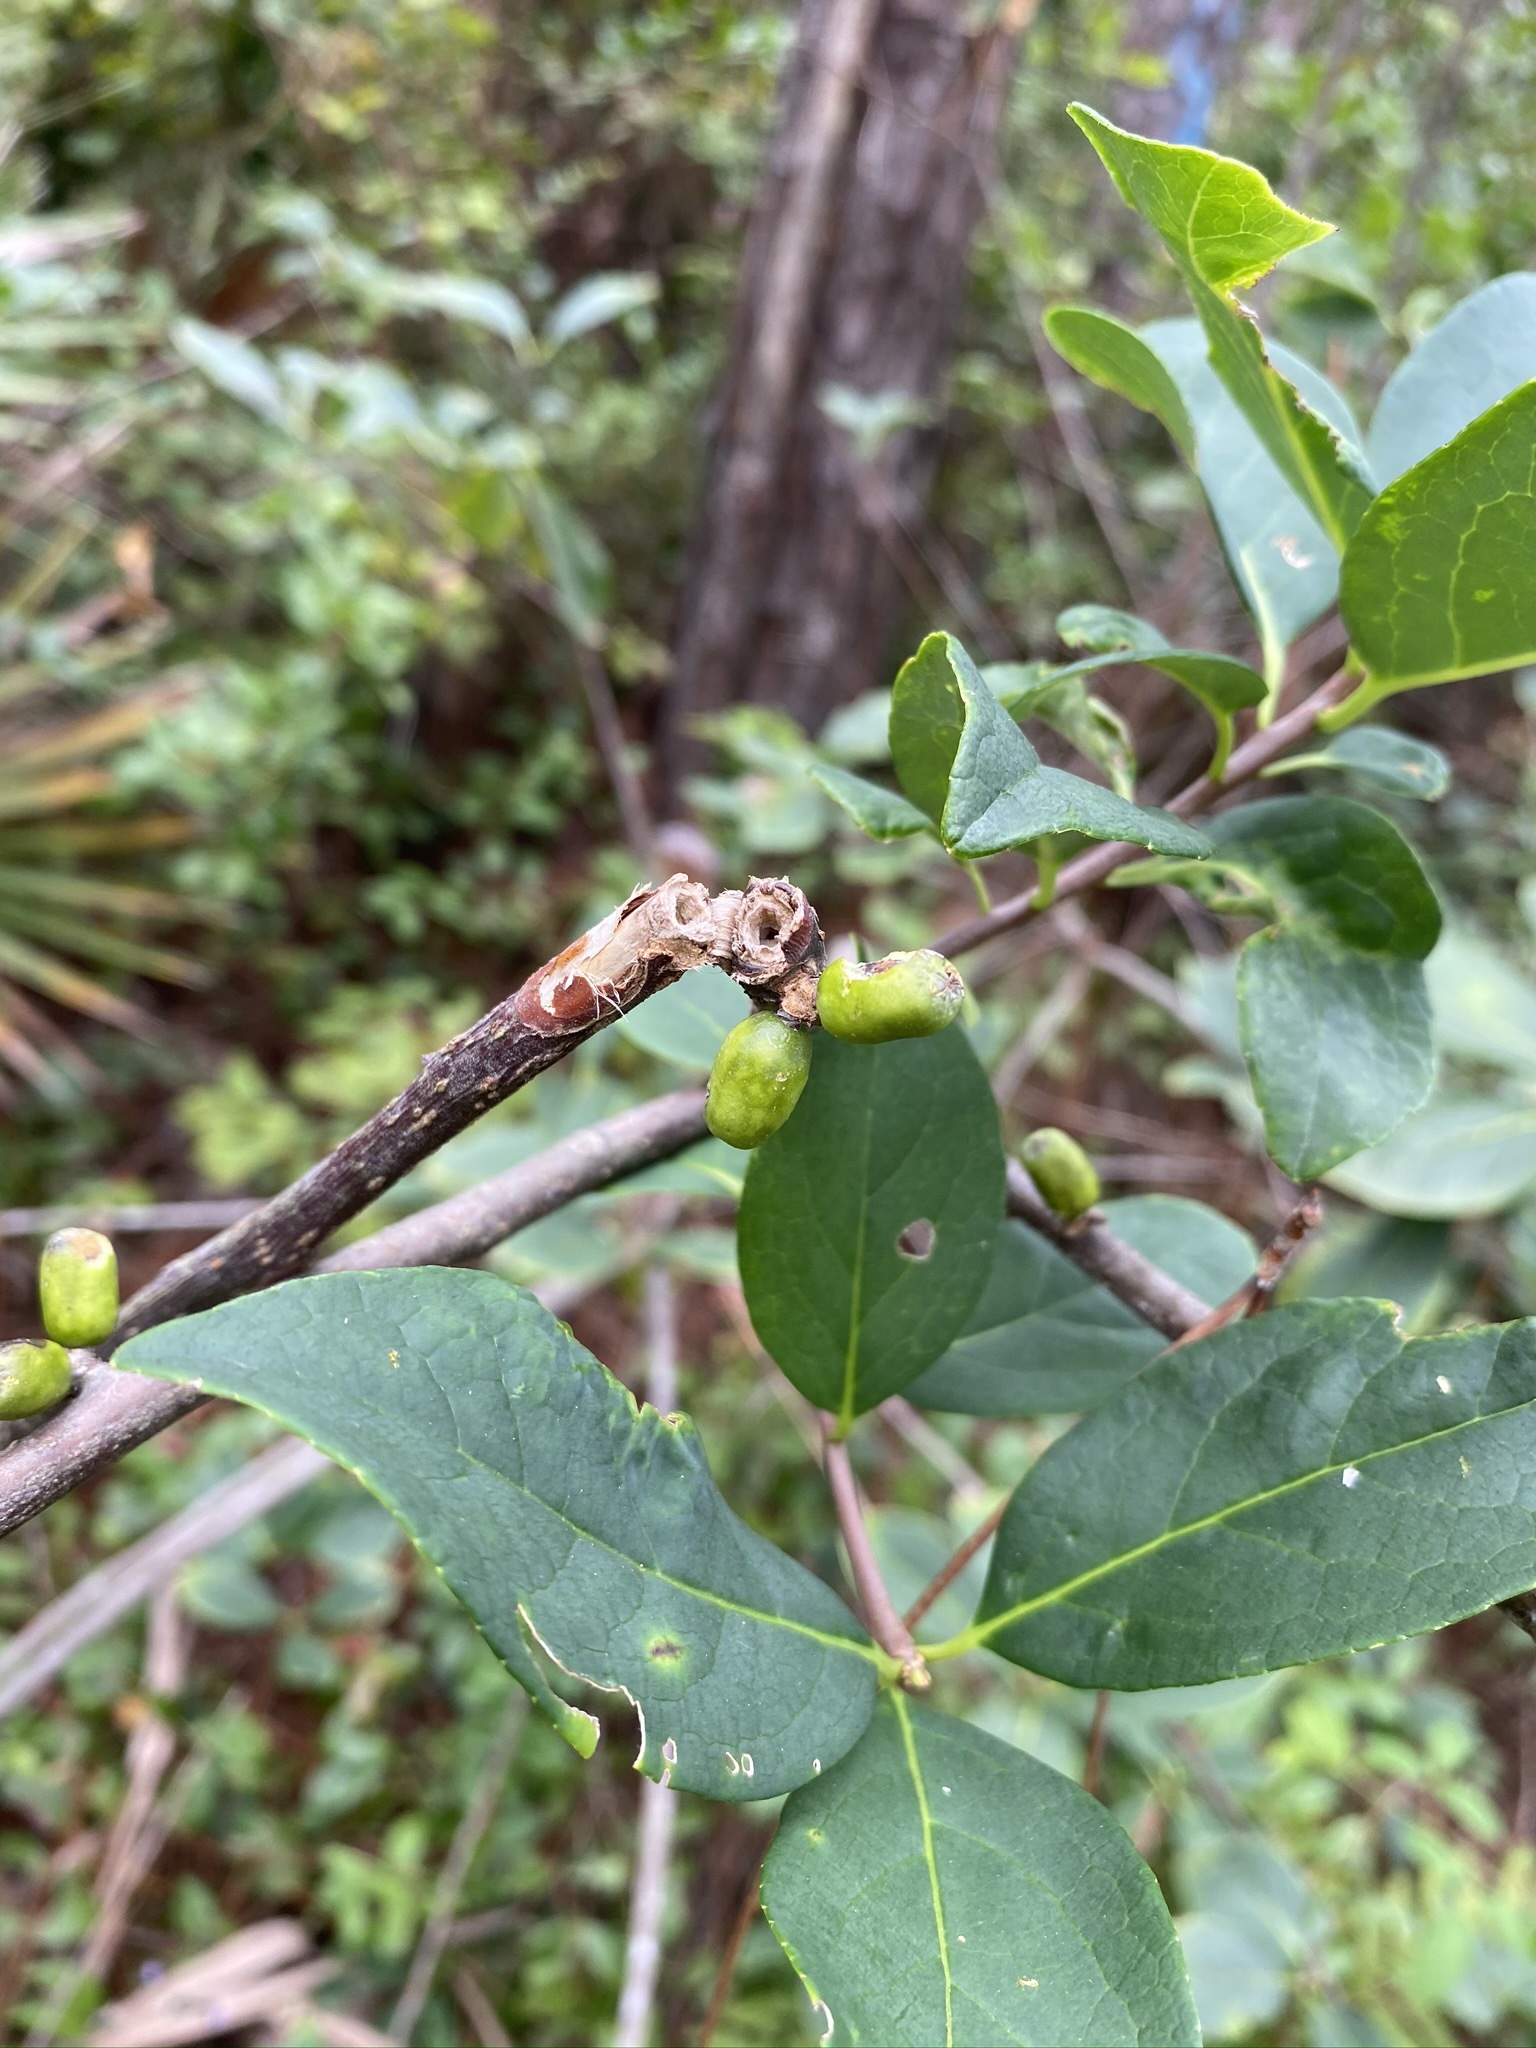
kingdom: Plantae
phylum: Tracheophyta
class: Magnoliopsida
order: Ericales
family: Symplocaceae
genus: Symplocos
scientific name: Symplocos tinctoria
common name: Horse-sugar
